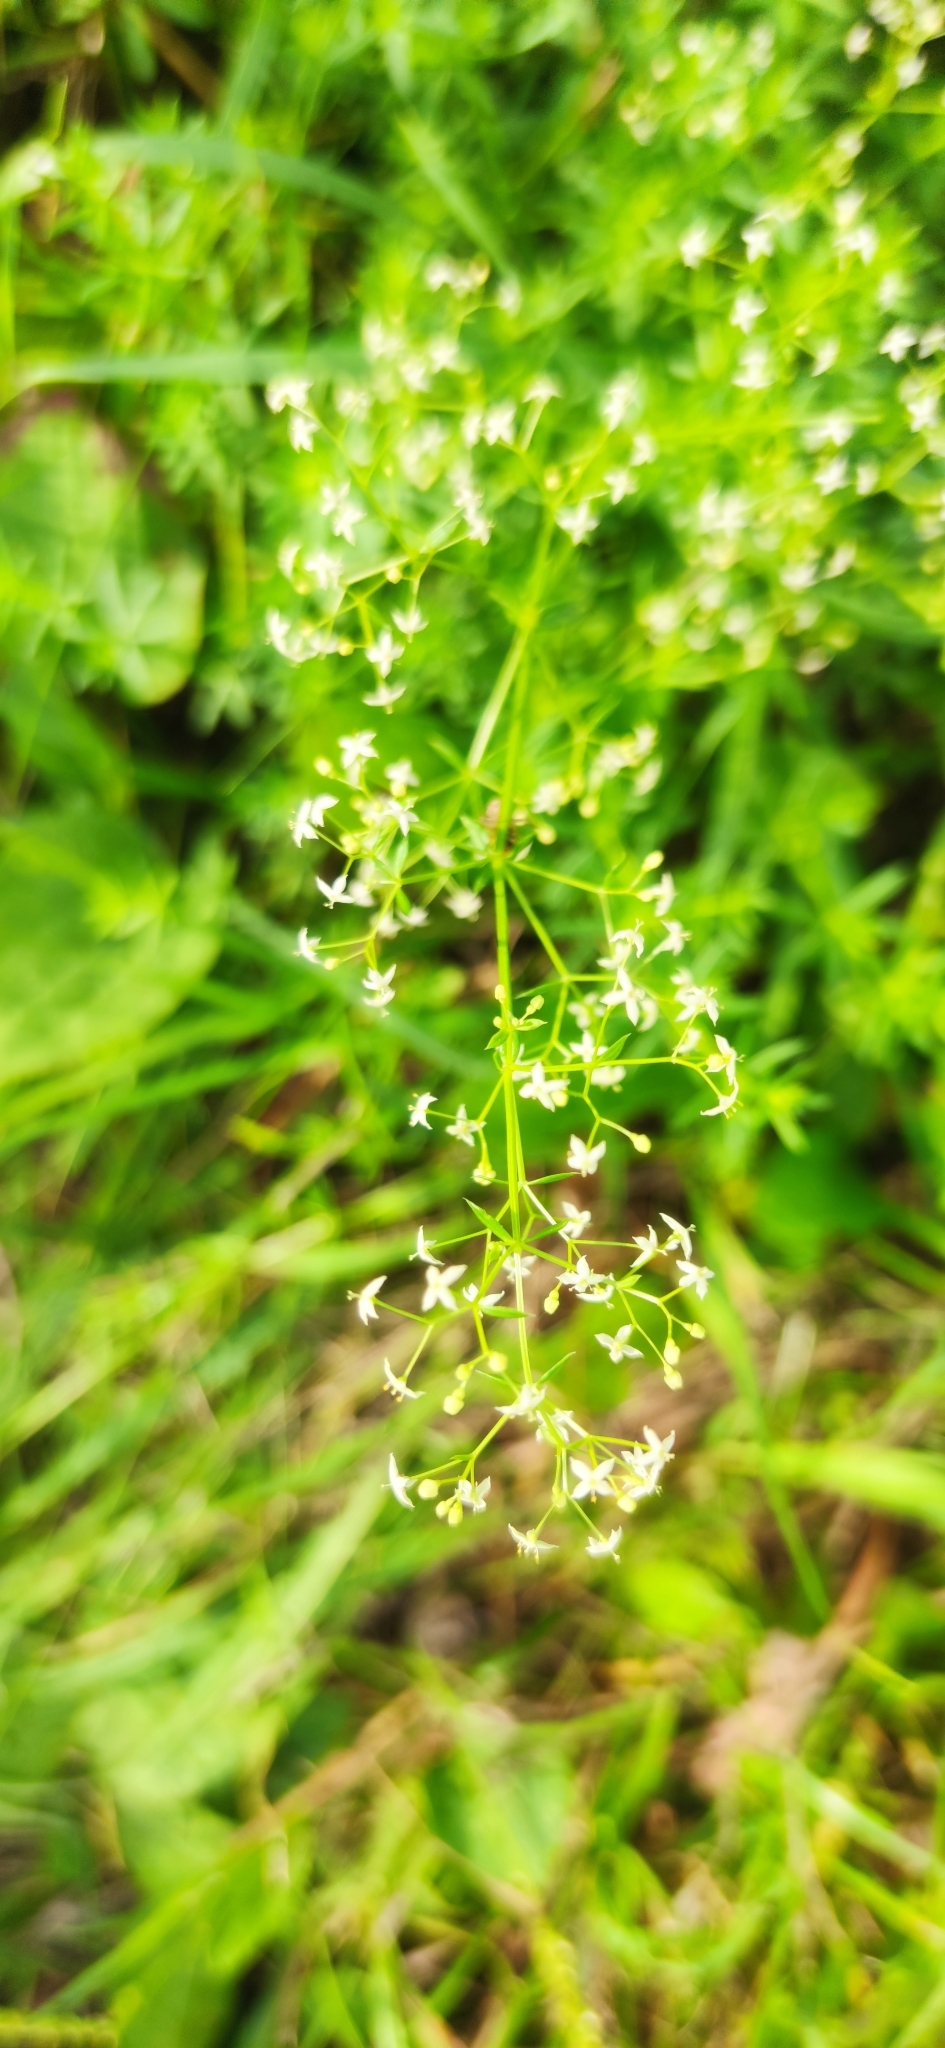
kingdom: Plantae
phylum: Tracheophyta
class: Magnoliopsida
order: Gentianales
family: Rubiaceae
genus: Galium
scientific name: Galium mollugo
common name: Hedge bedstraw
